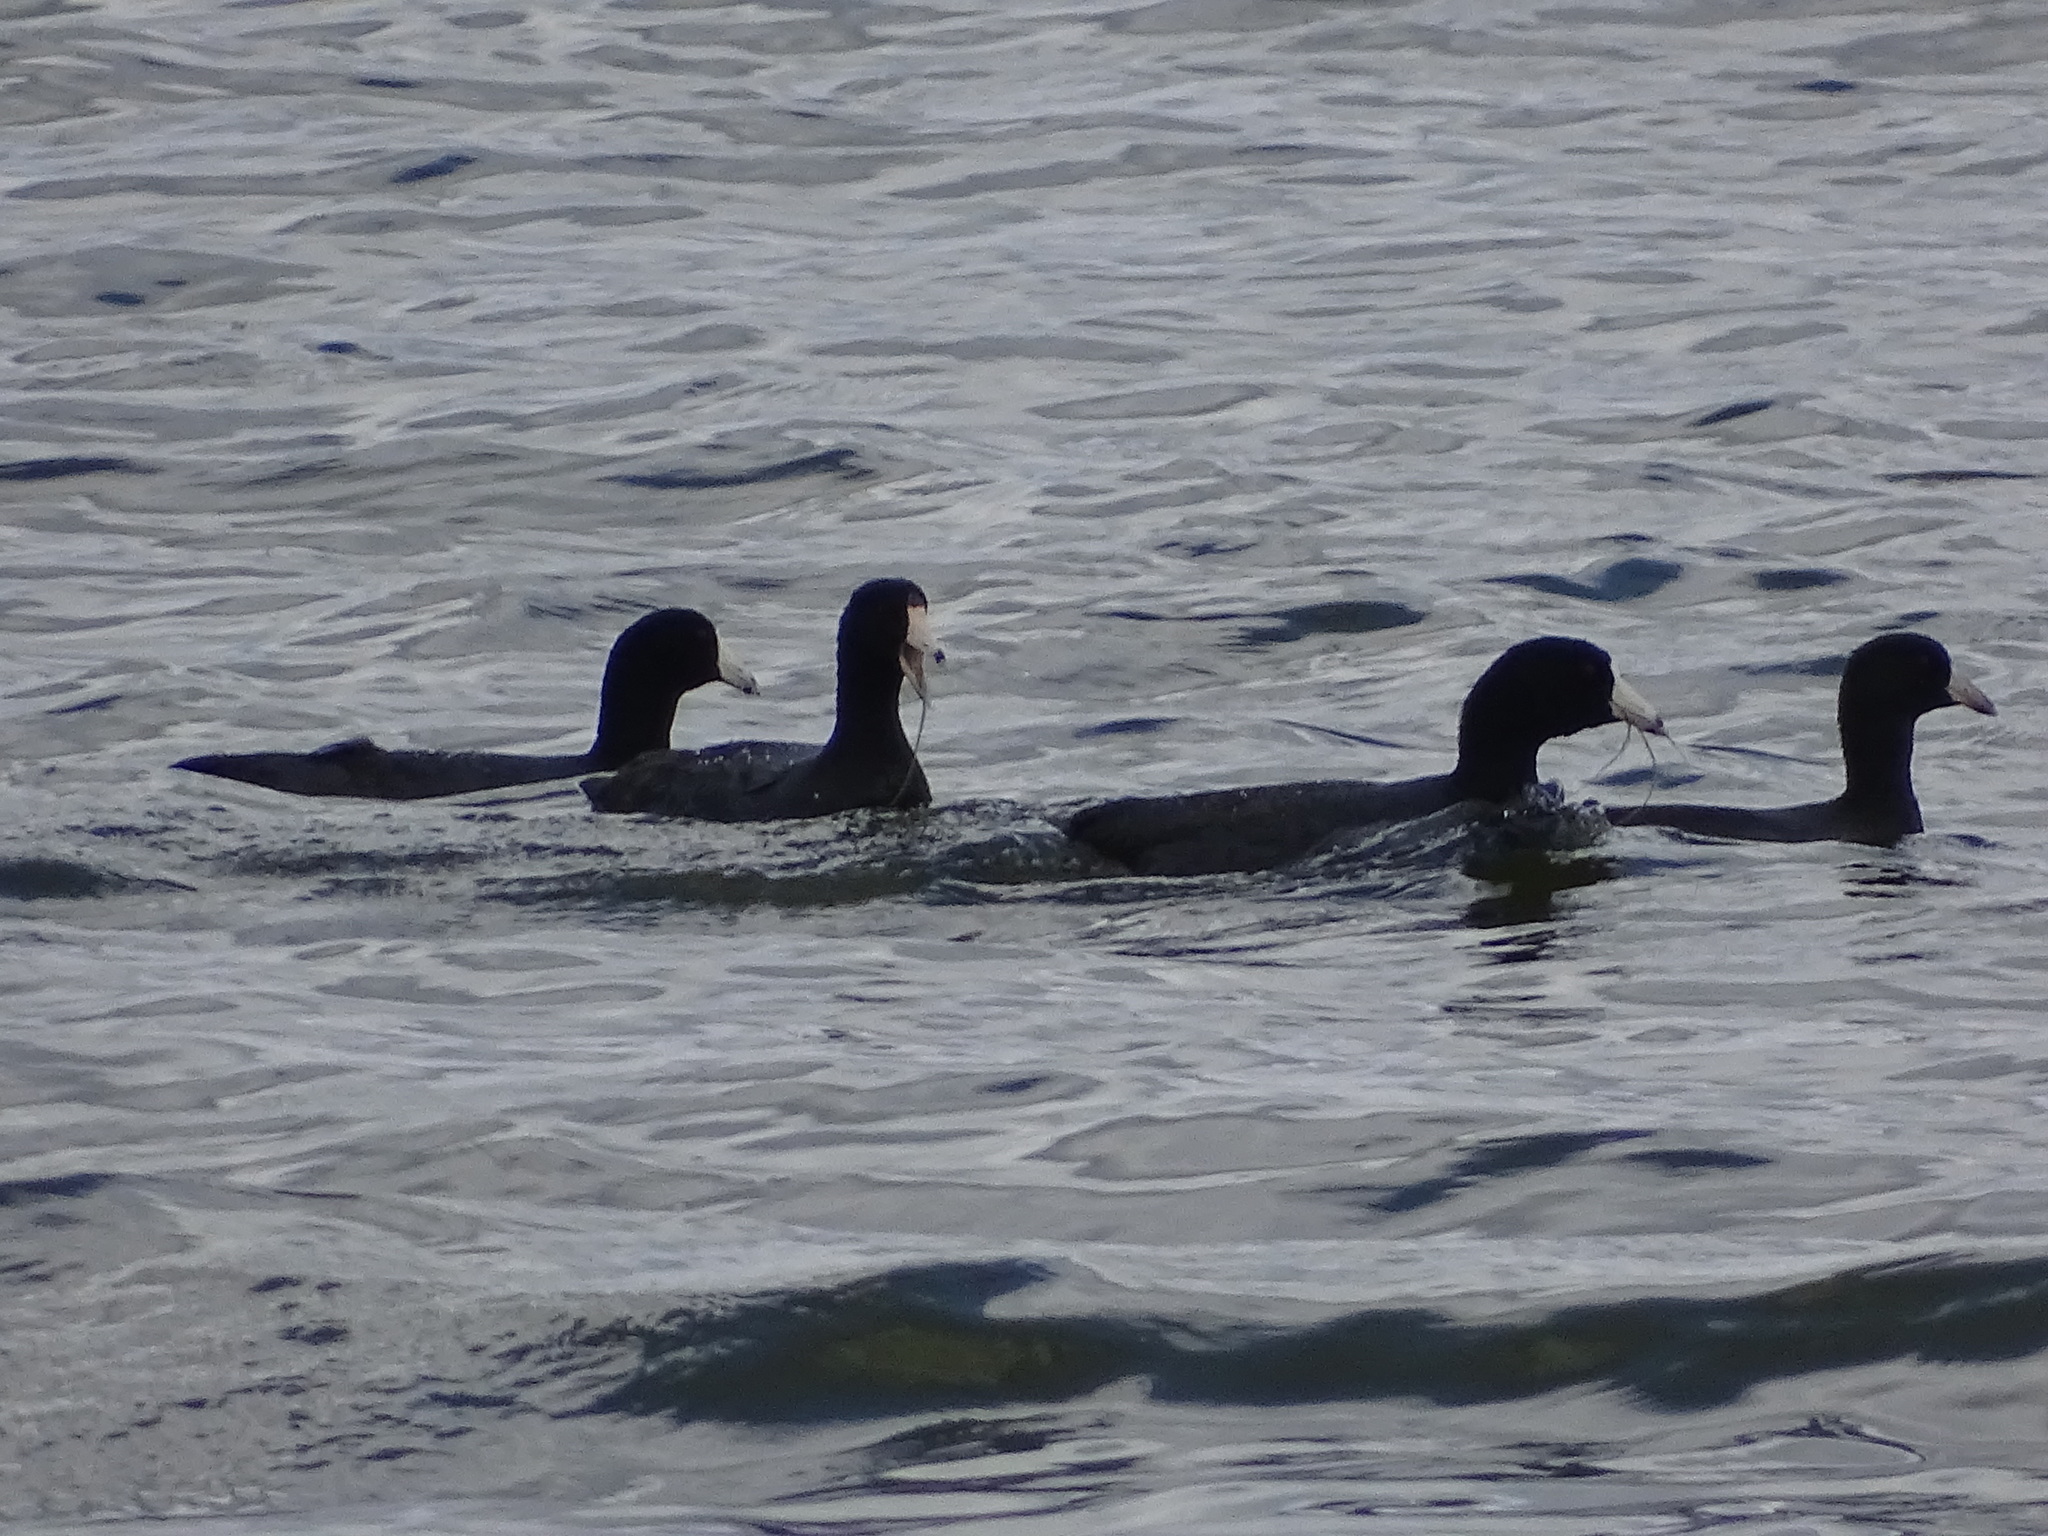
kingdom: Animalia
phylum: Chordata
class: Aves
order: Gruiformes
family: Rallidae
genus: Fulica
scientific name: Fulica americana
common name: American coot
